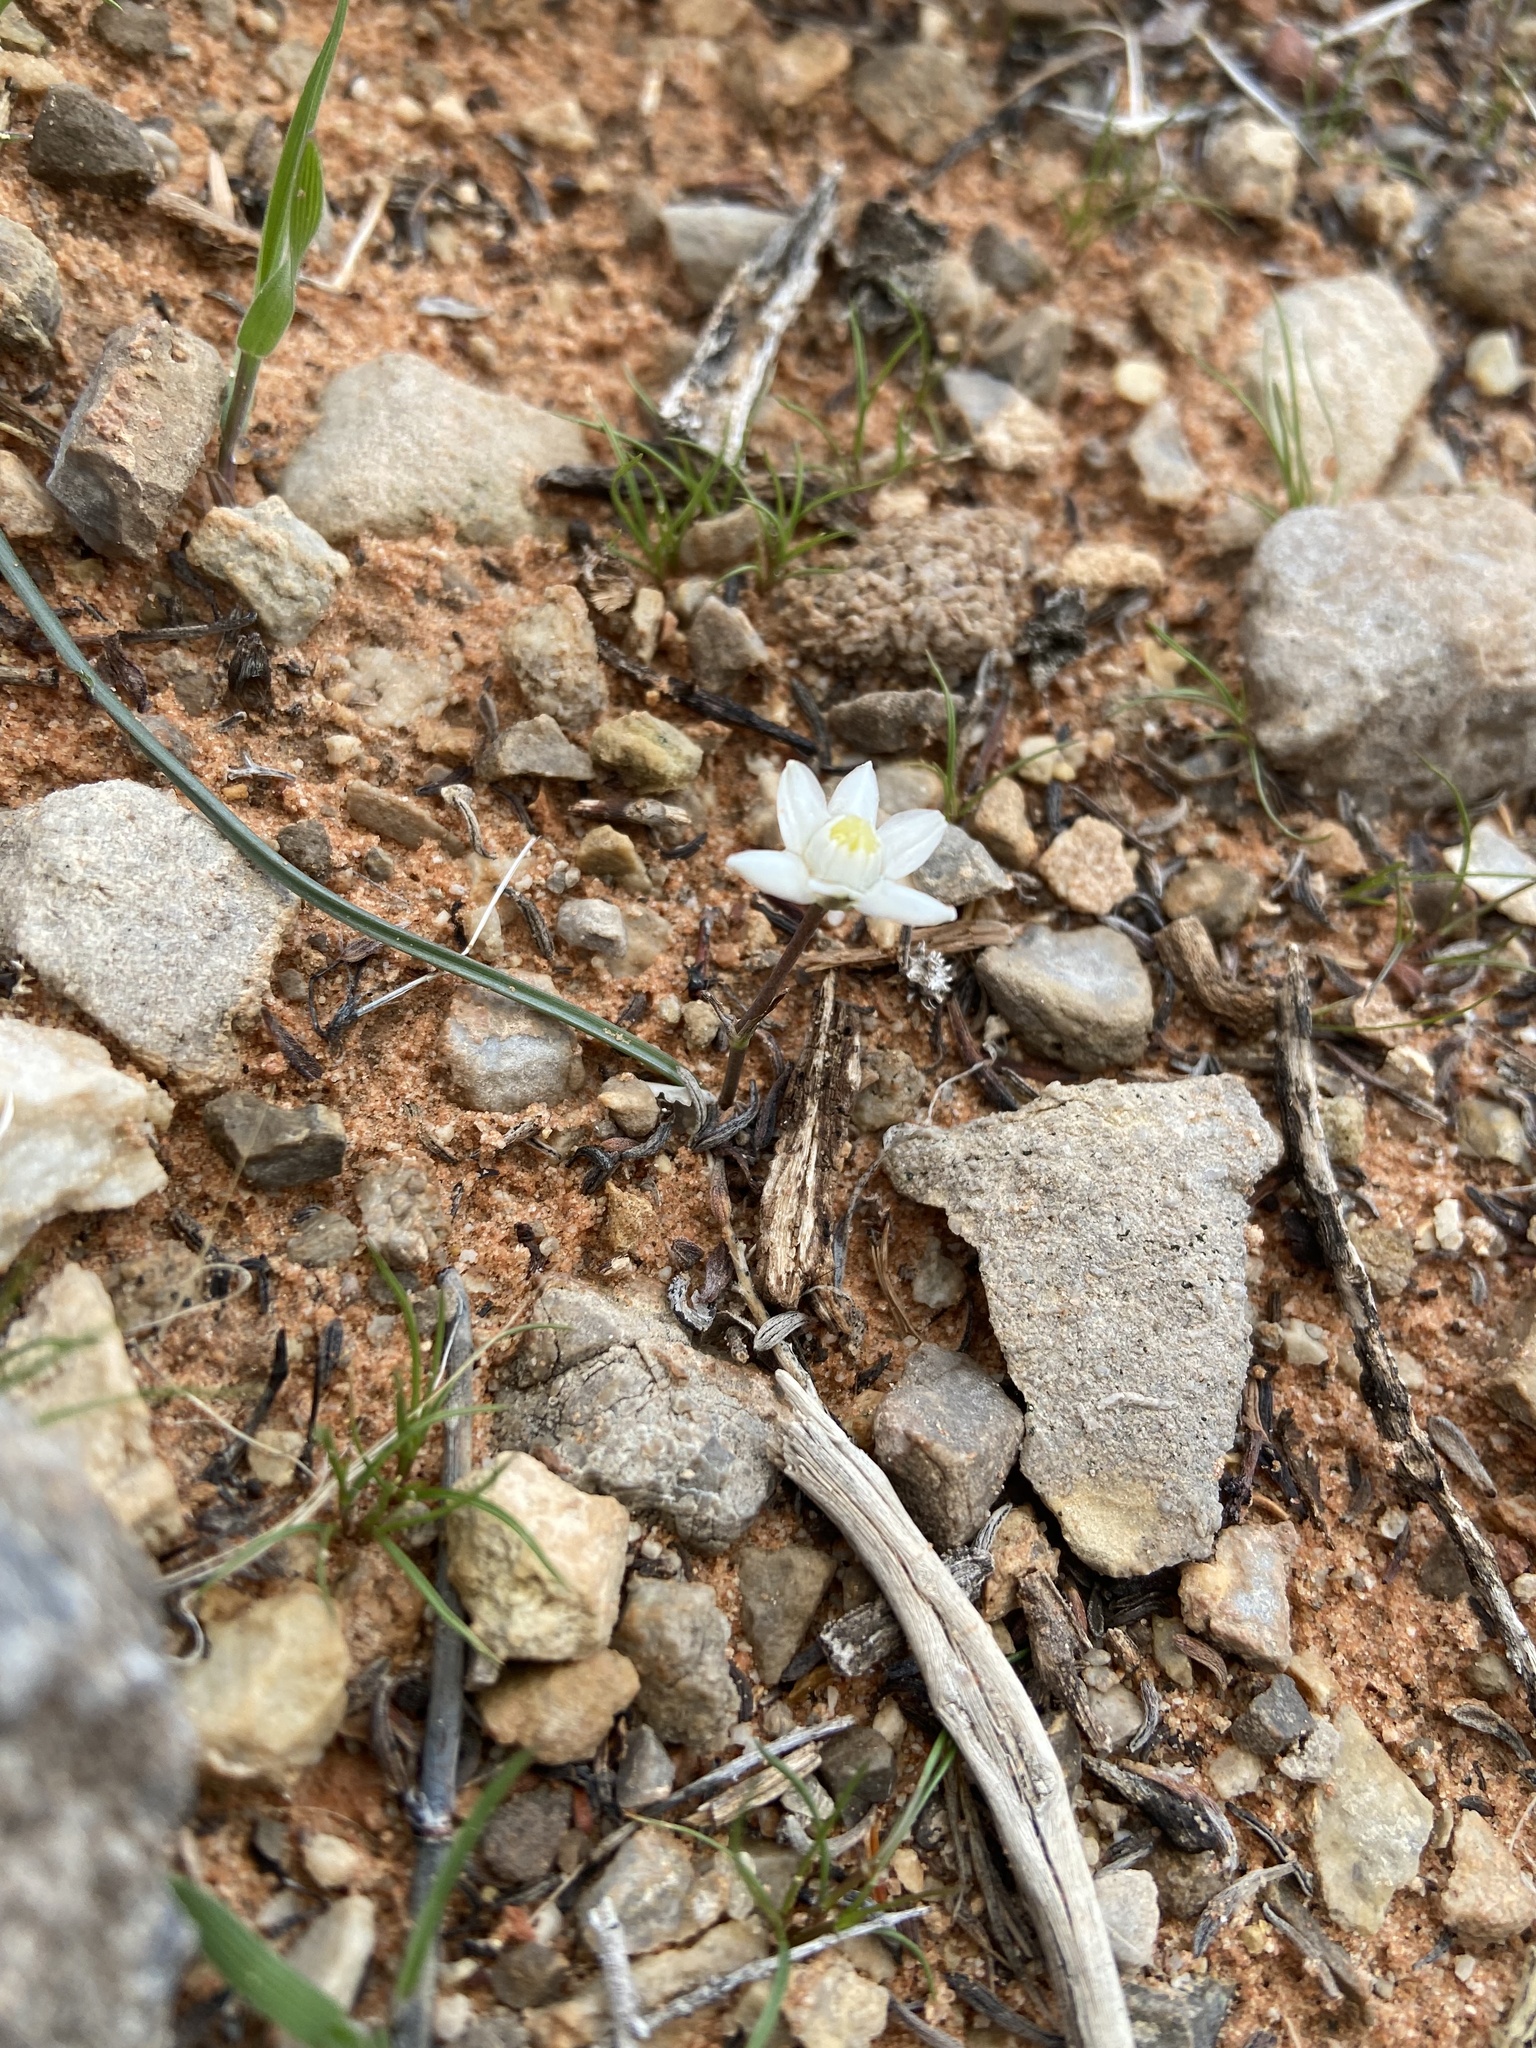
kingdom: Plantae
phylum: Tracheophyta
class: Liliopsida
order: Asparagales
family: Asparagaceae
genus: Muilla
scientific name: Muilla coronata
